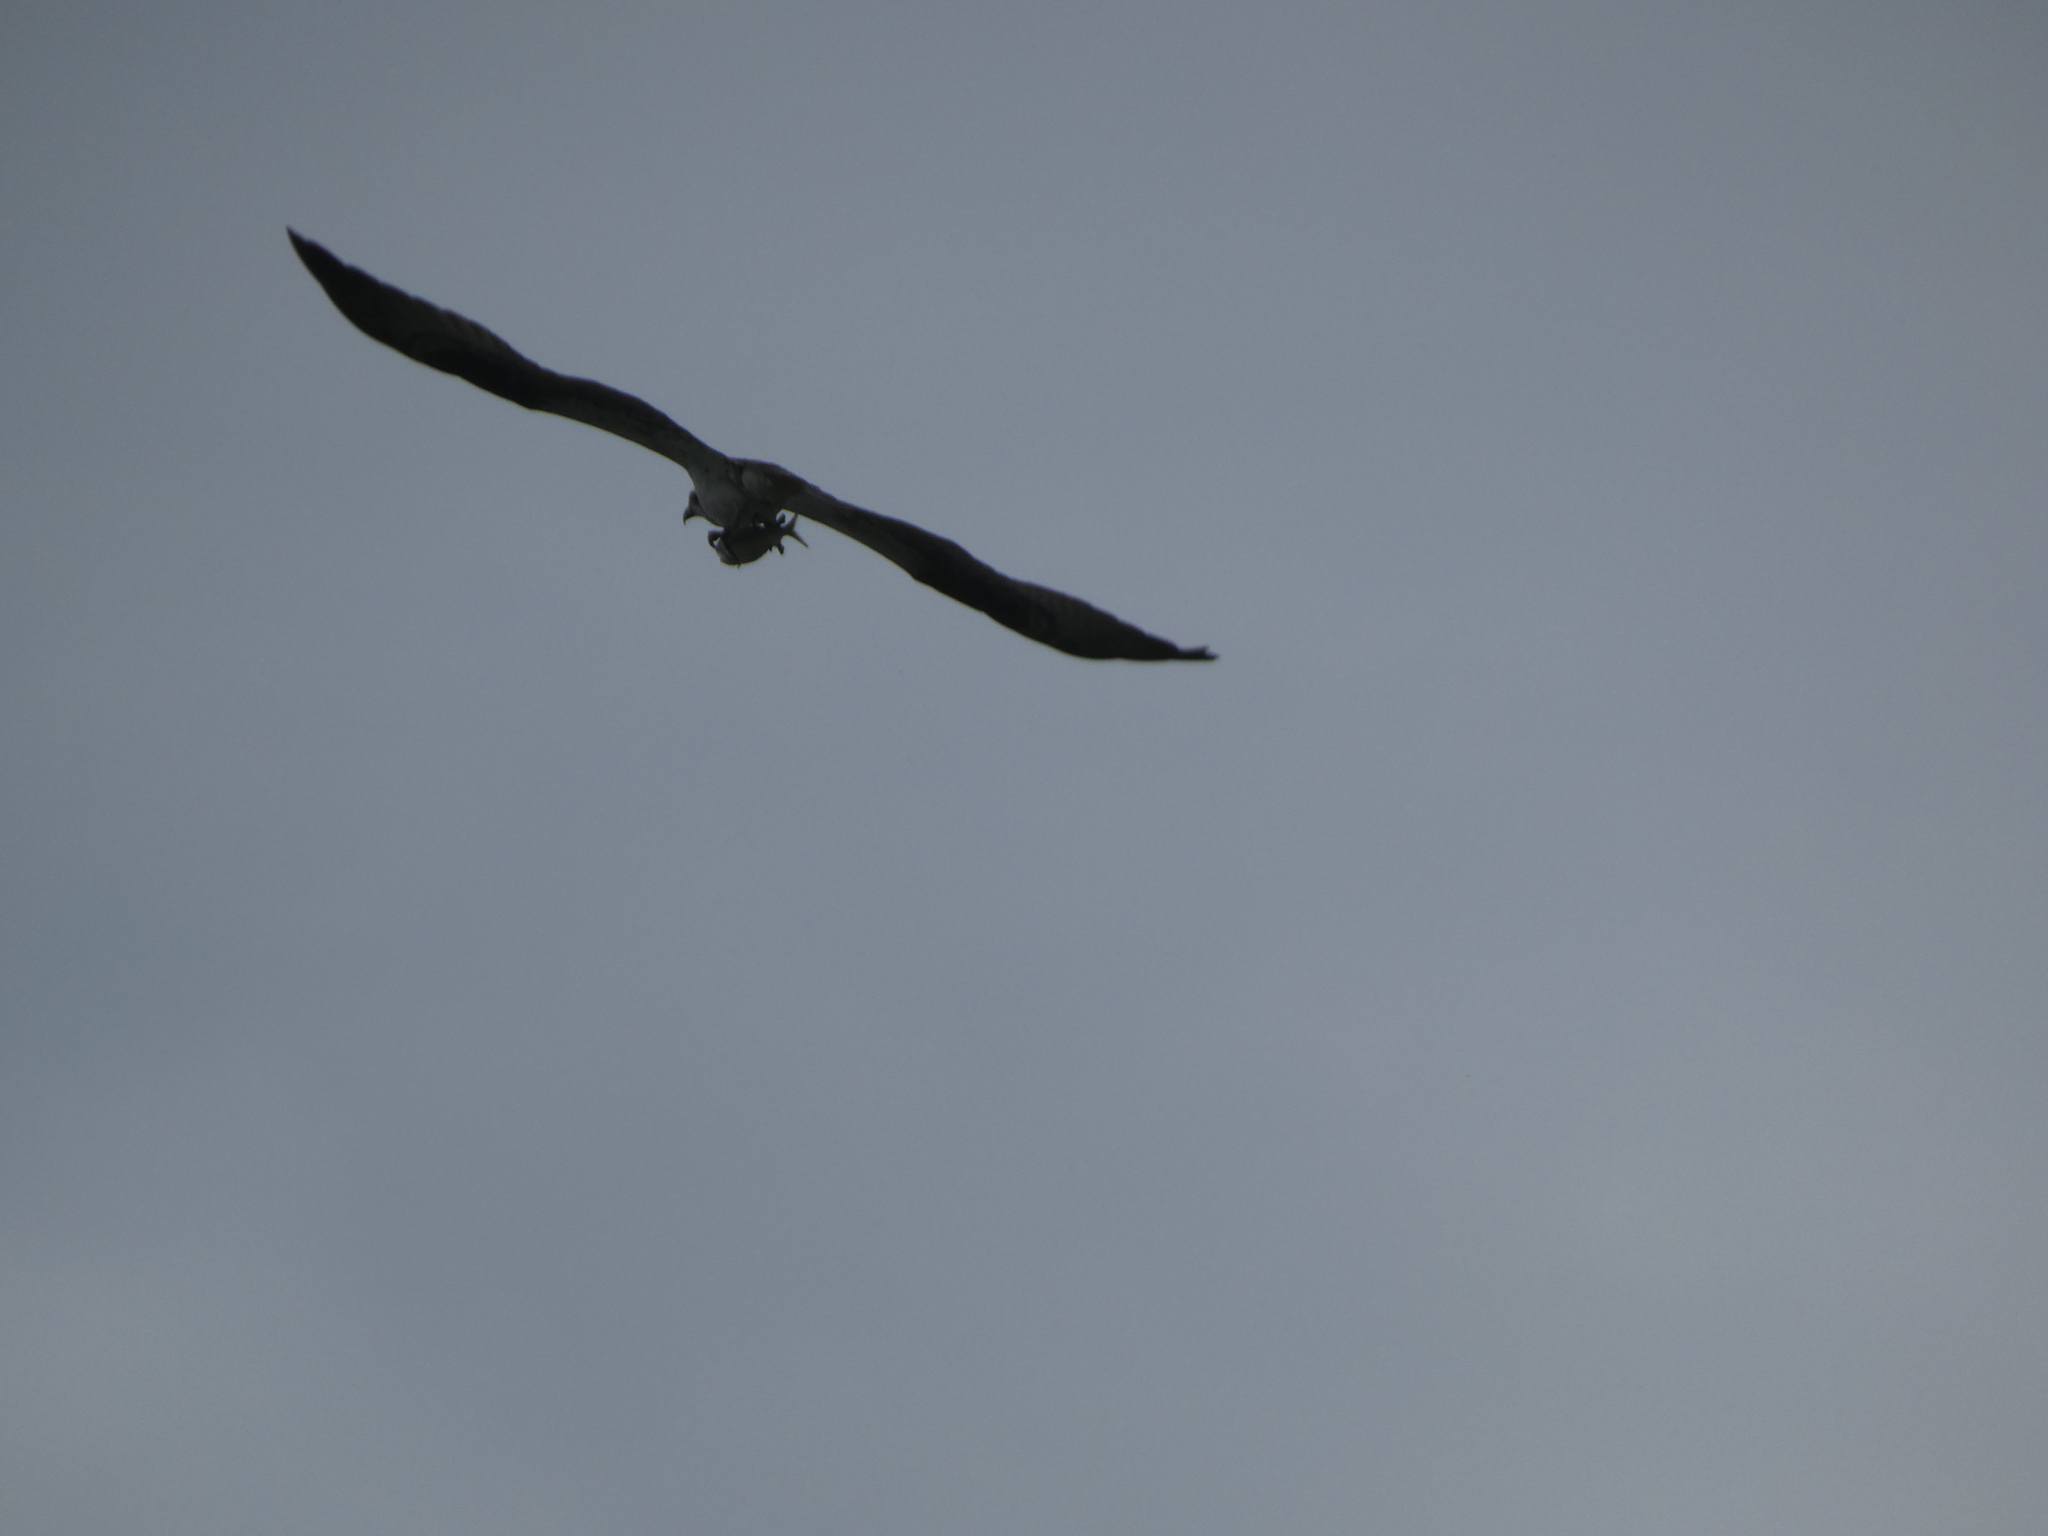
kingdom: Animalia
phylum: Chordata
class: Aves
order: Accipitriformes
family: Pandionidae
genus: Pandion
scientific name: Pandion haliaetus
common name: Osprey
